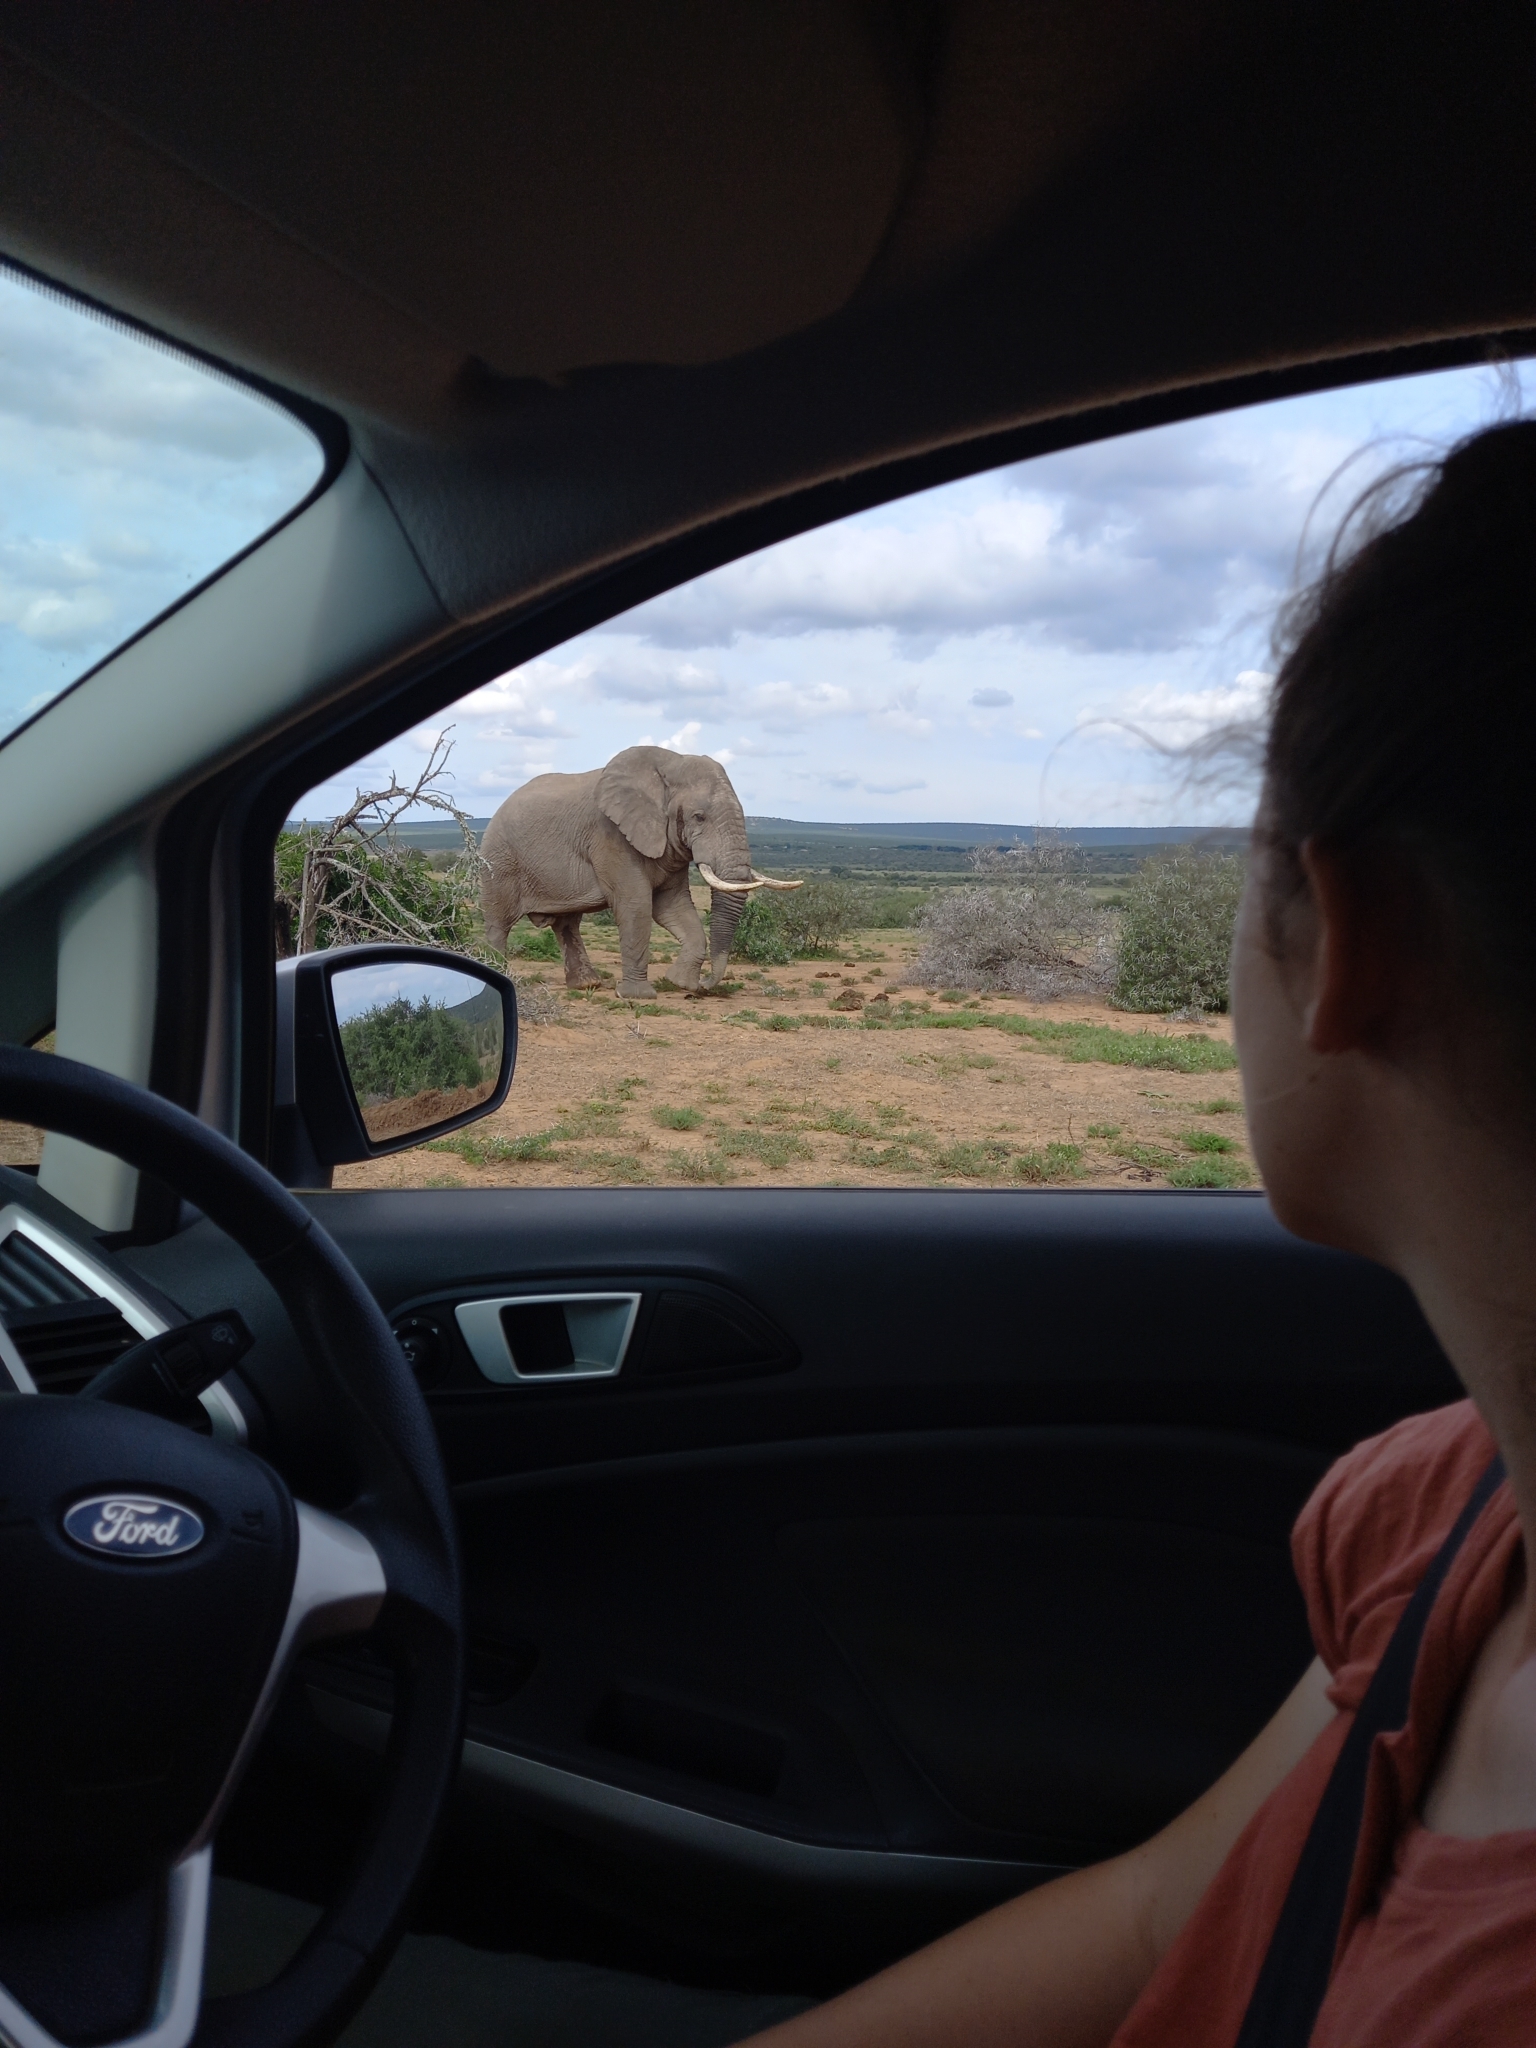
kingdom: Animalia
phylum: Chordata
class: Mammalia
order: Proboscidea
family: Elephantidae
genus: Loxodonta
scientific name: Loxodonta africana
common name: African elephant
